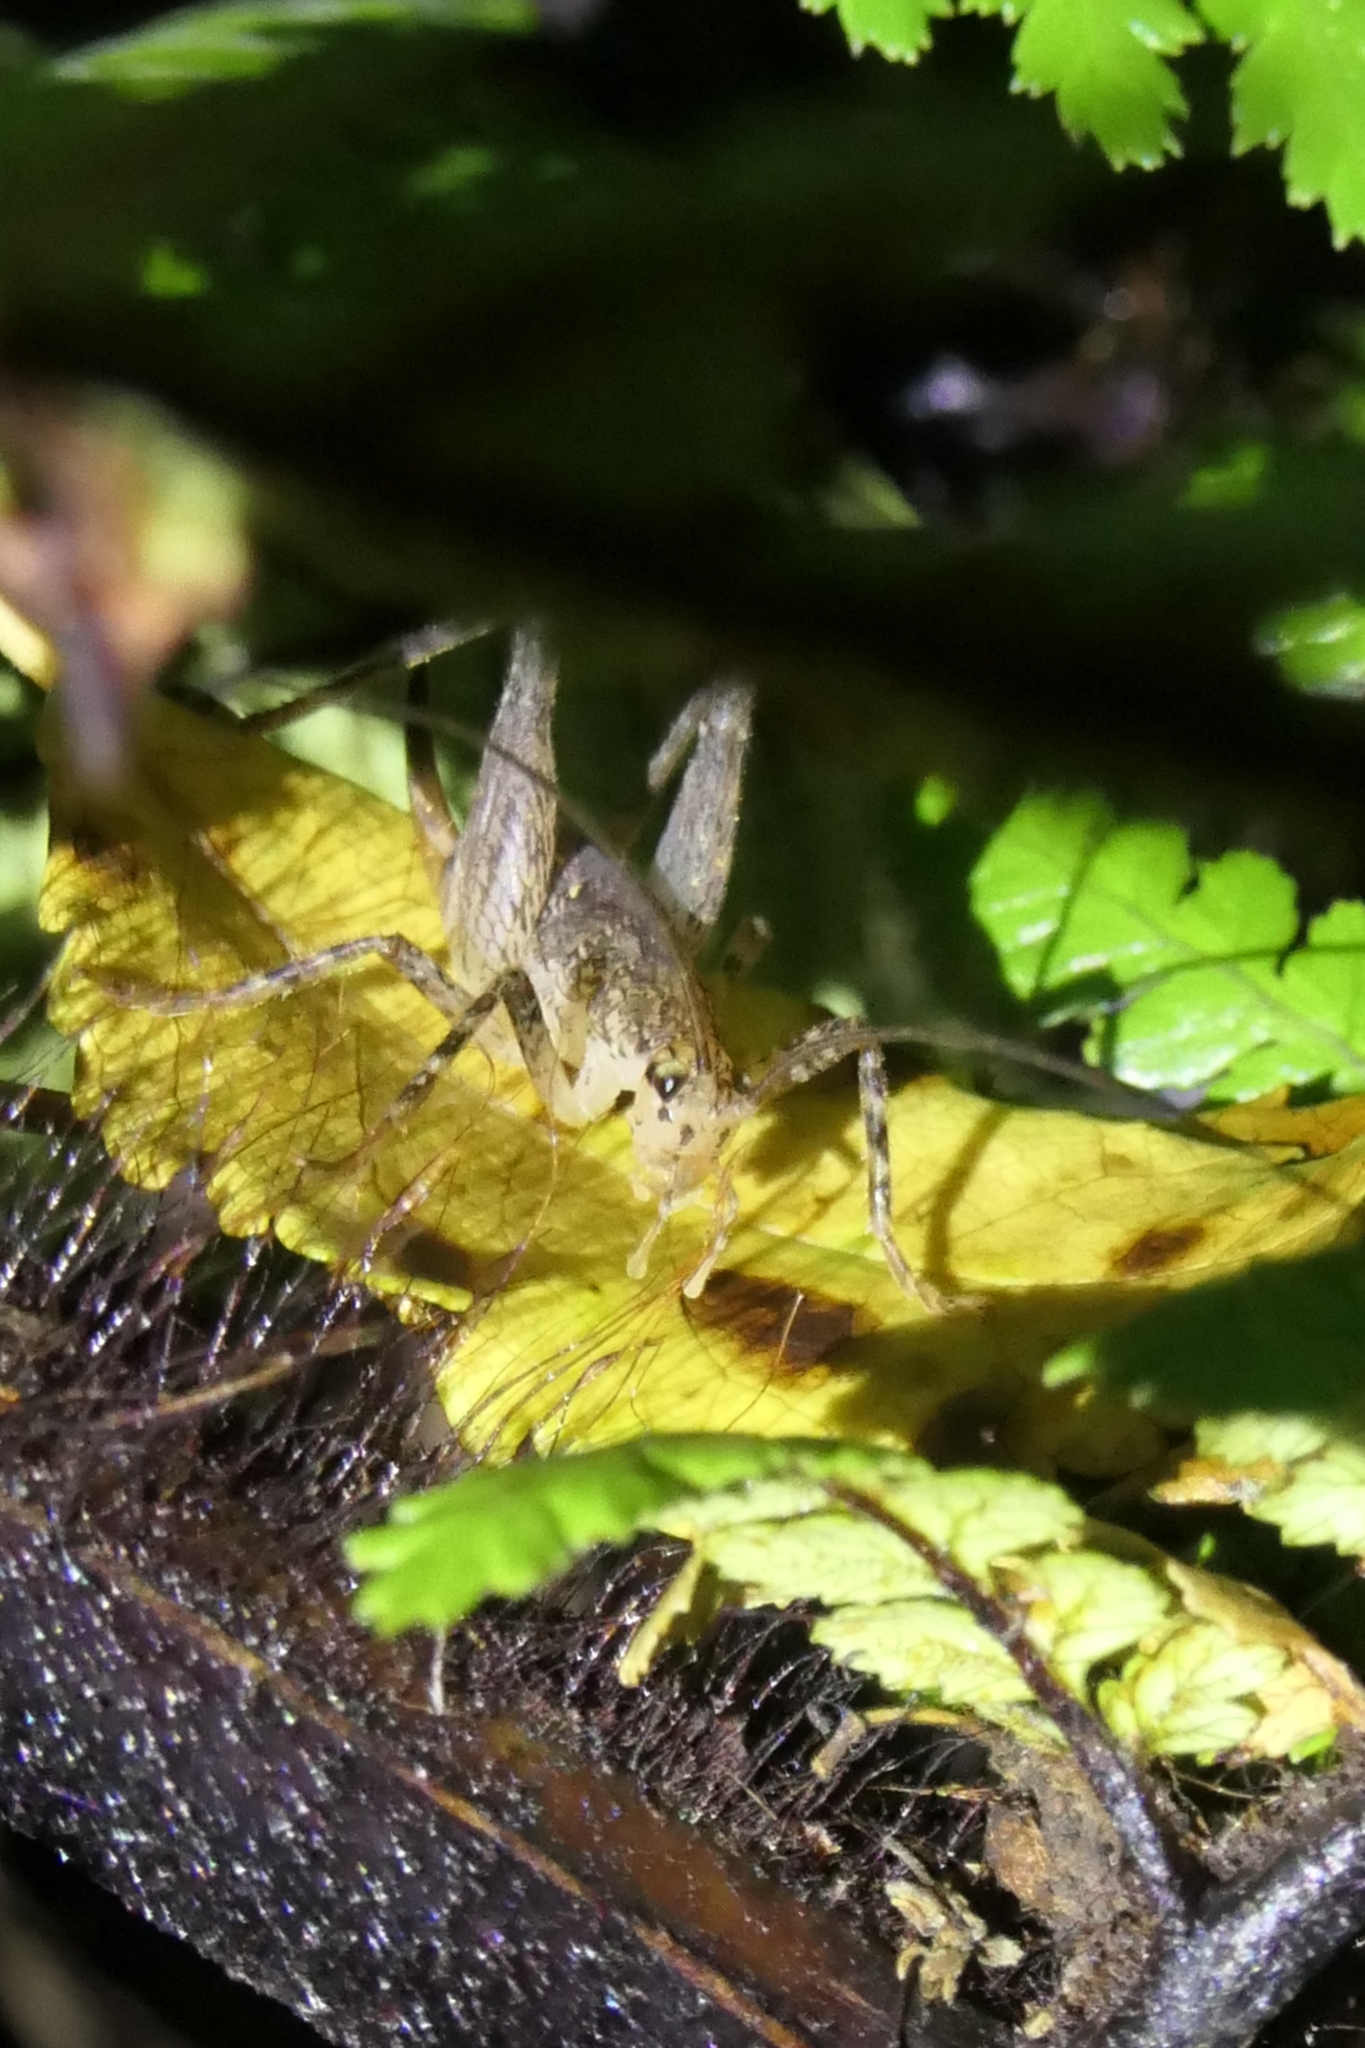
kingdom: Animalia
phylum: Arthropoda
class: Insecta
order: Orthoptera
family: Rhaphidophoridae
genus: Isoplectron
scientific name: Isoplectron armatum
